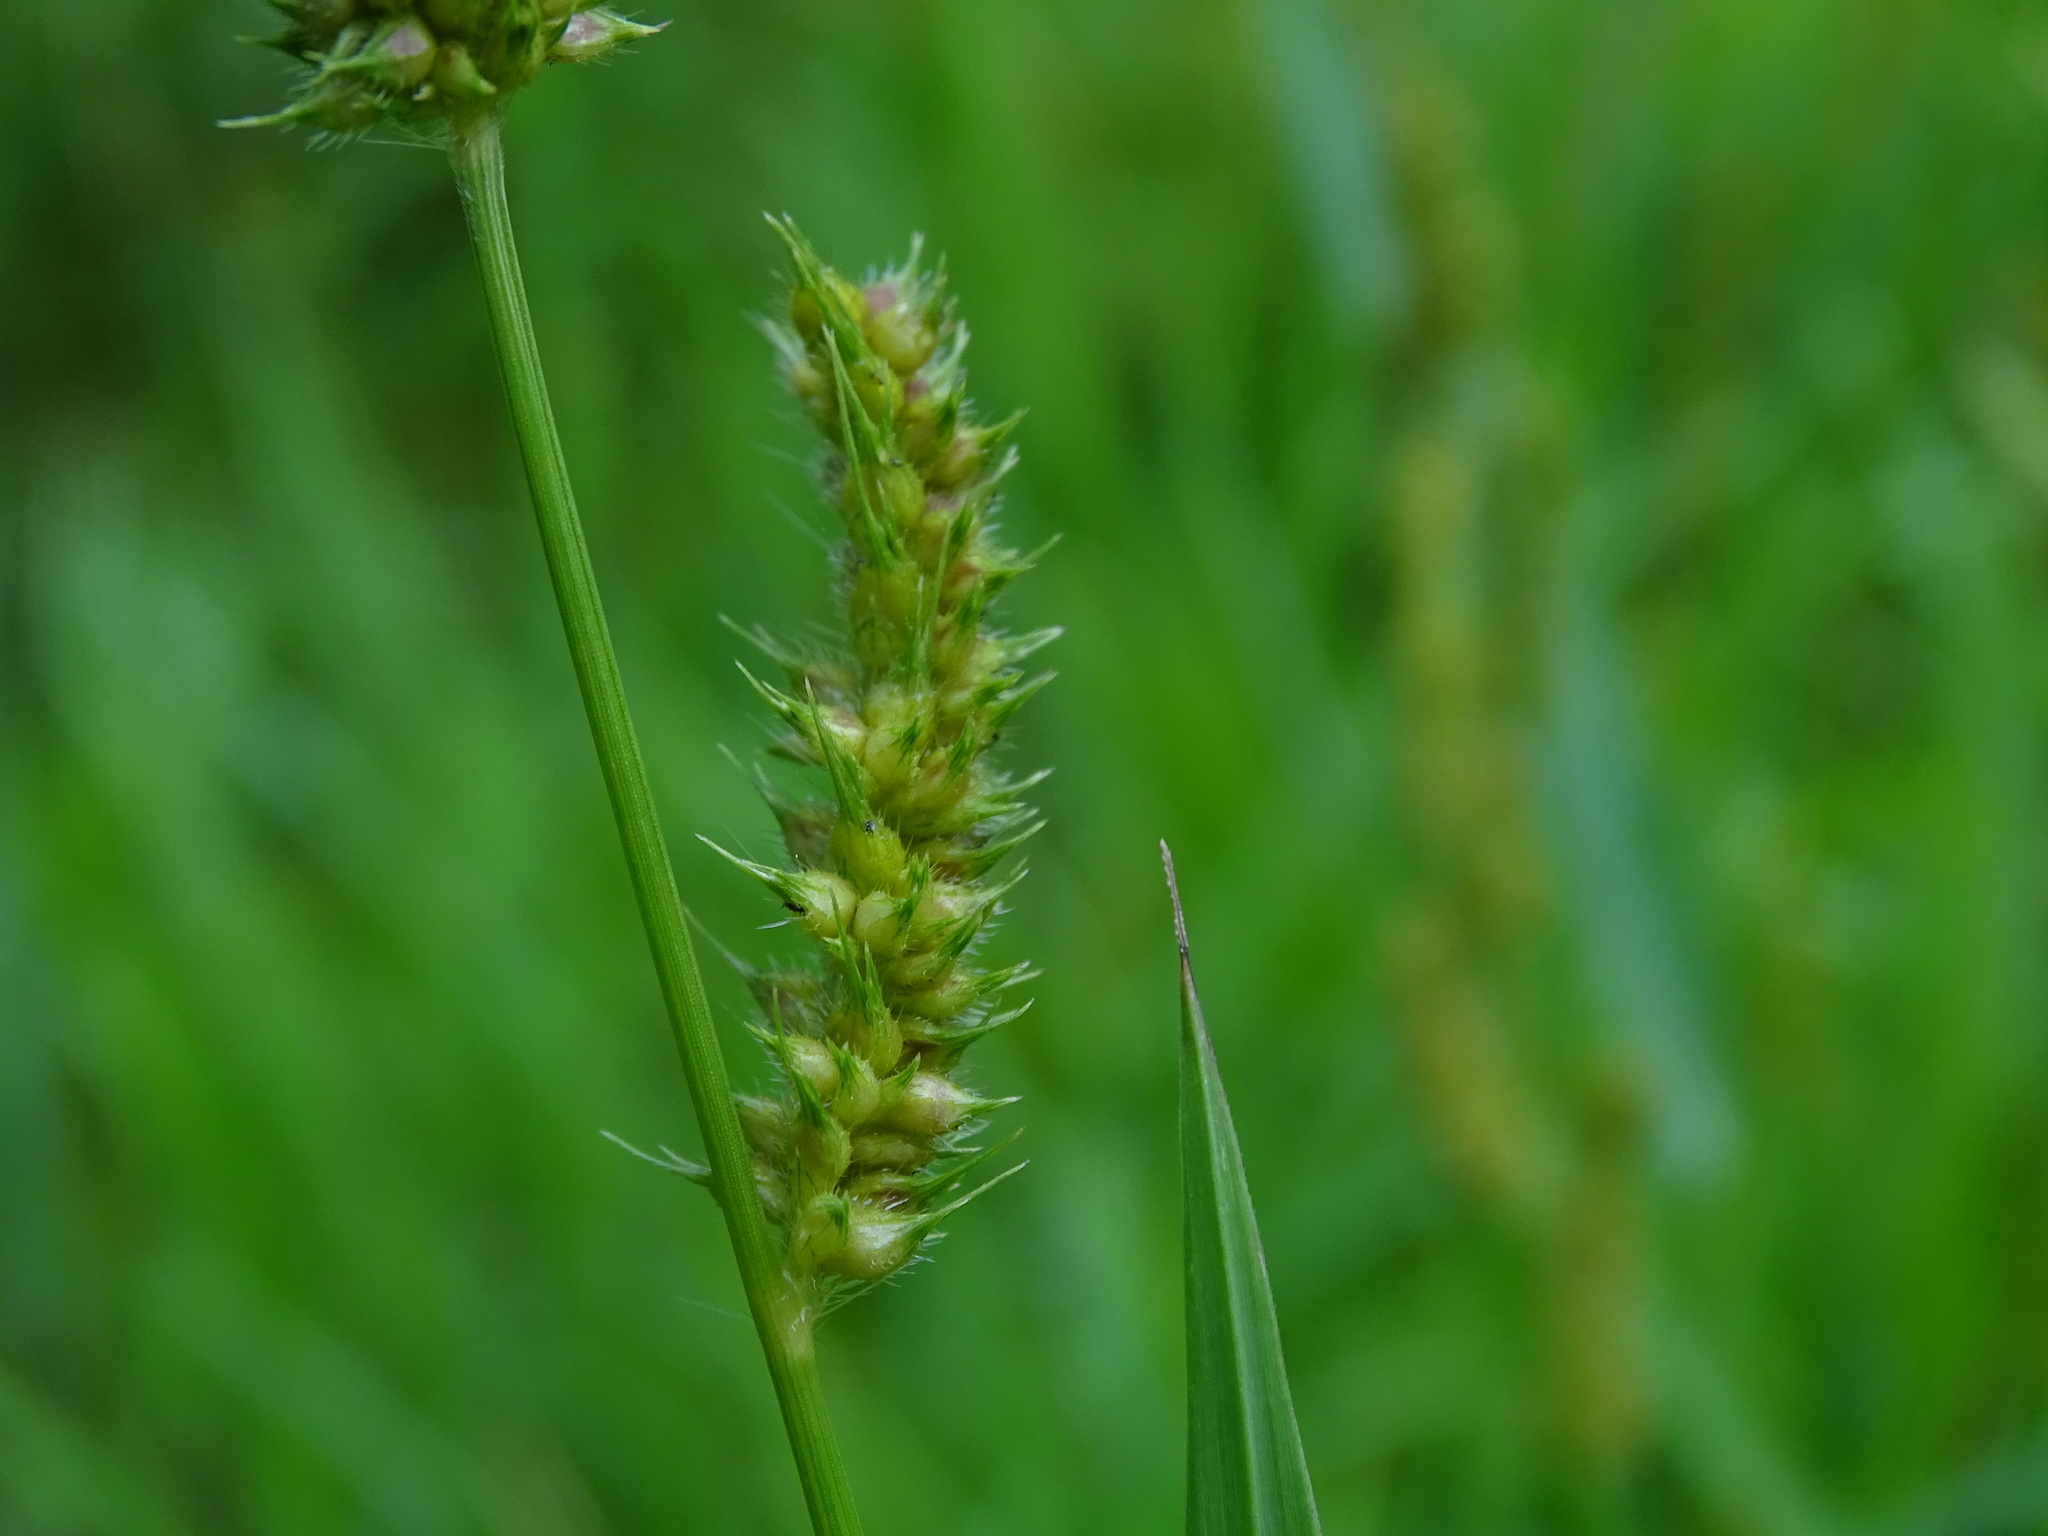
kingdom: Plantae
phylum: Tracheophyta
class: Liliopsida
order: Poales
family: Poaceae
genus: Echinochloa
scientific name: Echinochloa crus-galli
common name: Cockspur
